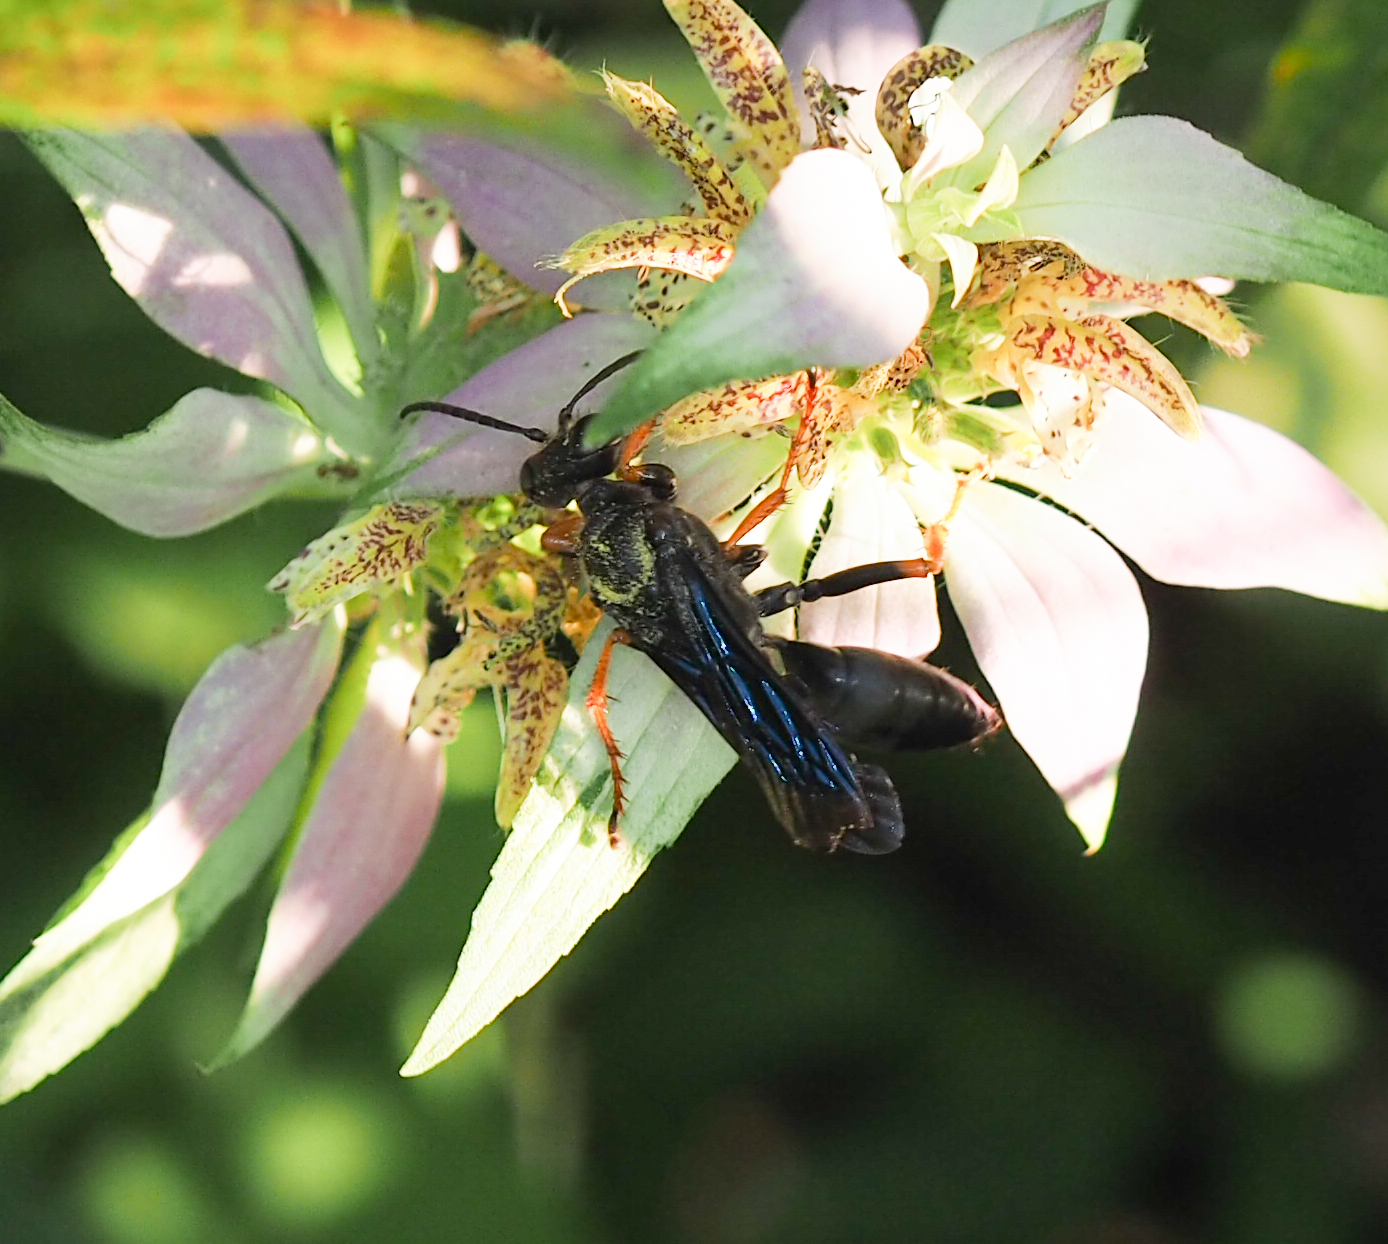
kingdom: Animalia
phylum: Arthropoda
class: Insecta
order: Hymenoptera
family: Sphecidae
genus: Sphex
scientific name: Sphex nudus
